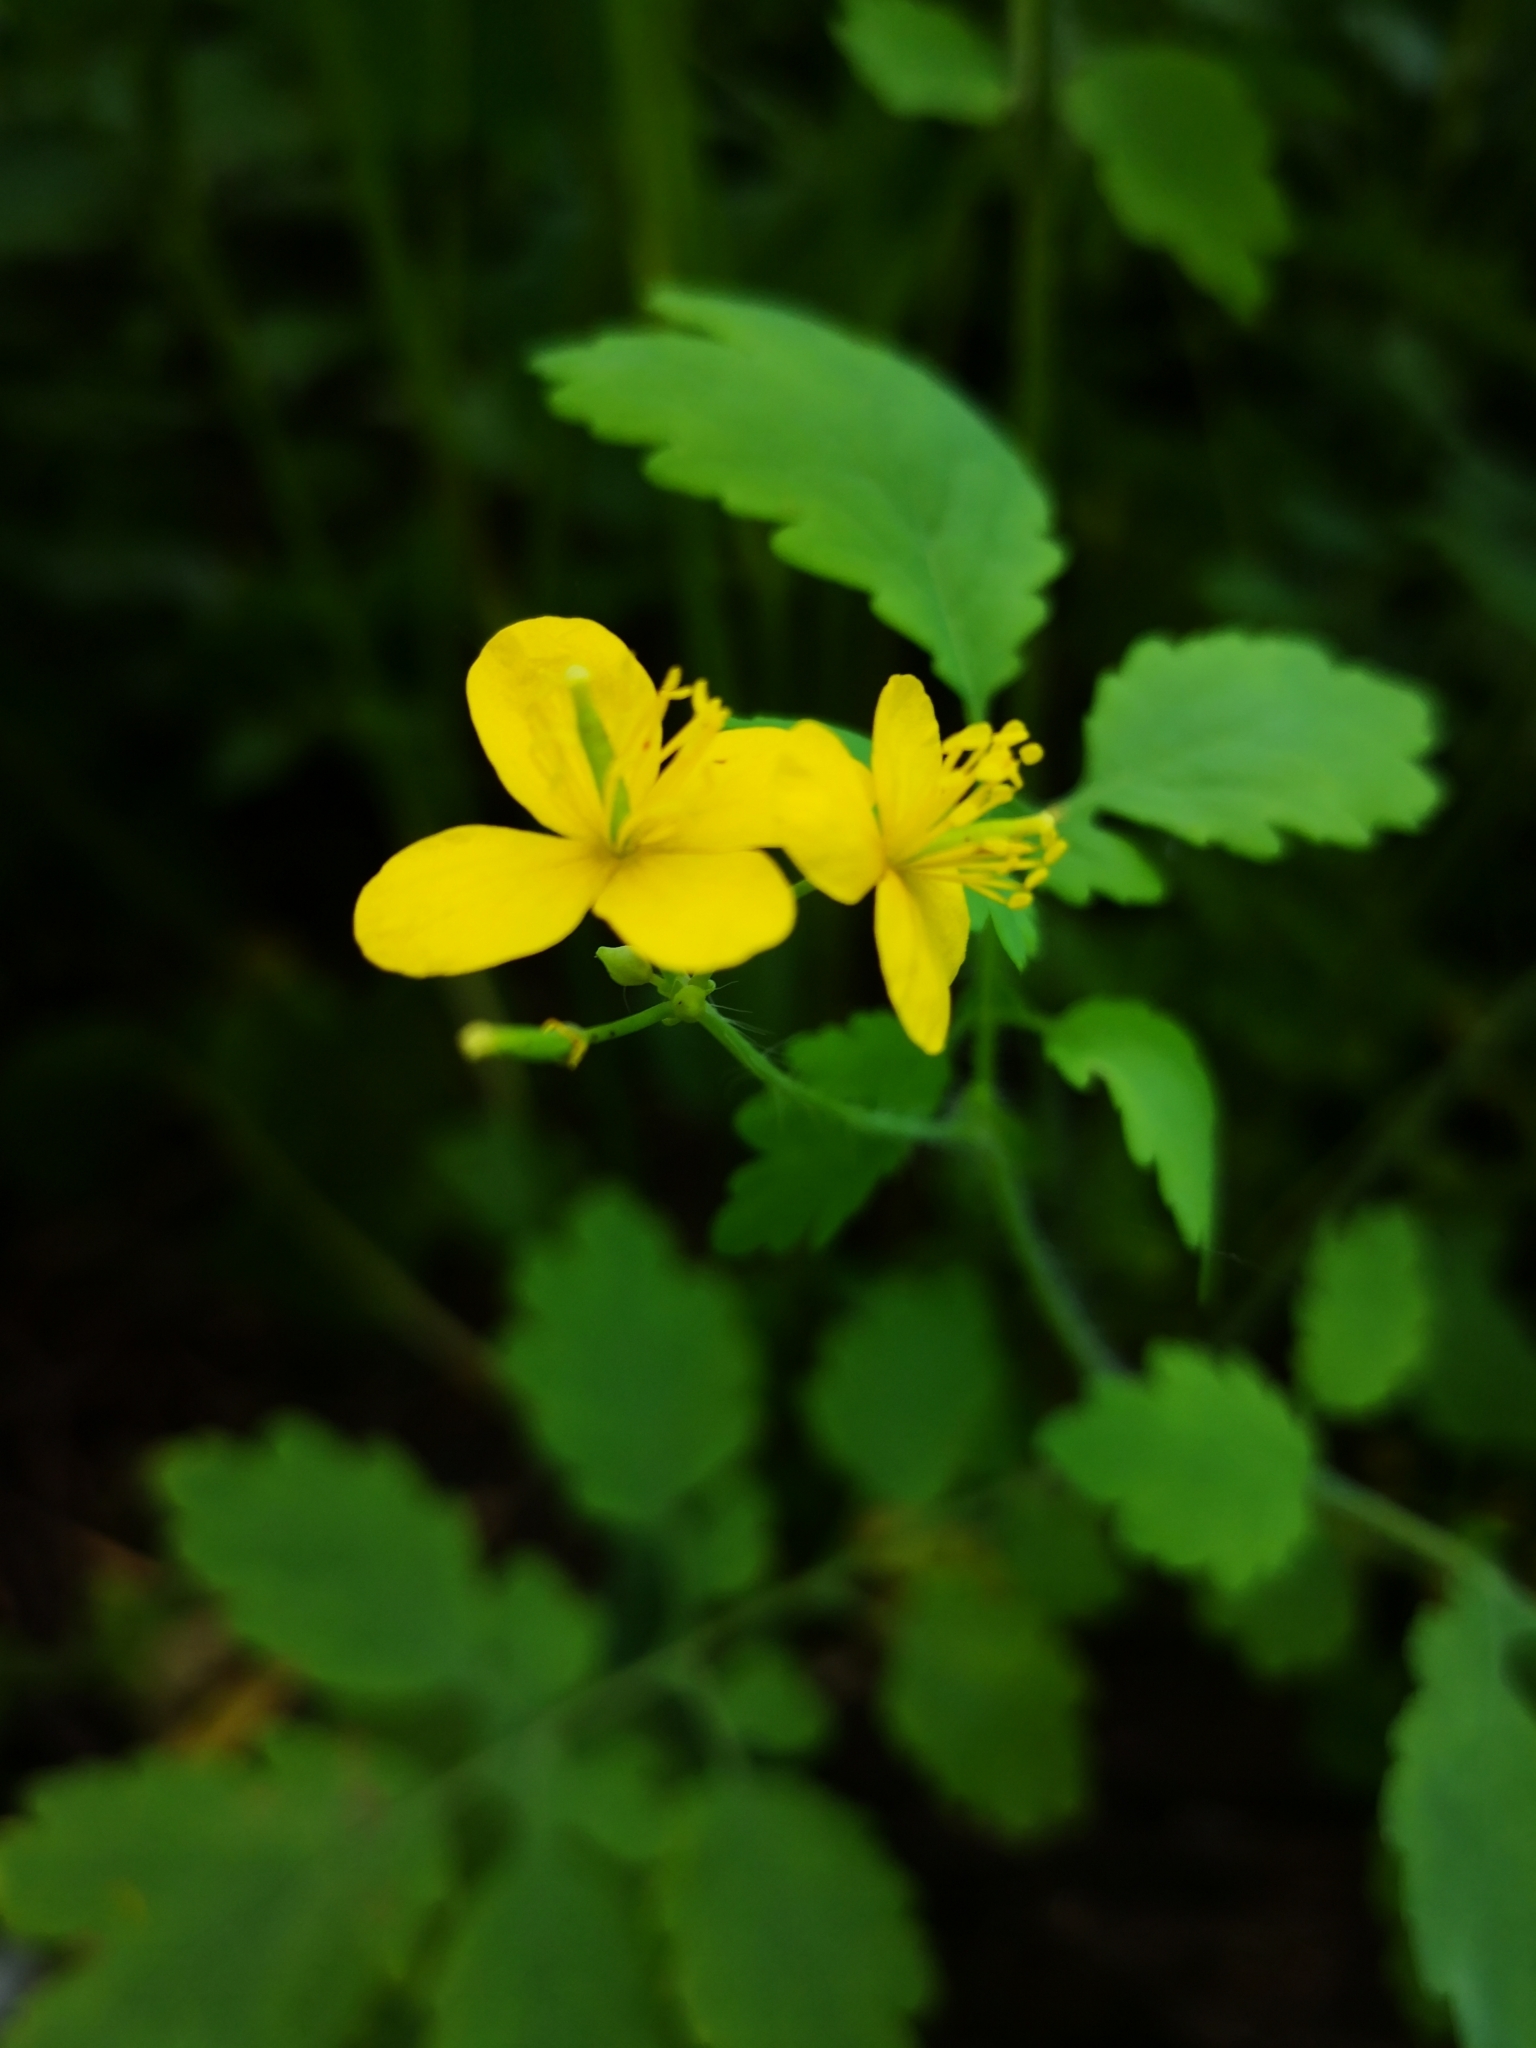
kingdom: Plantae
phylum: Tracheophyta
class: Magnoliopsida
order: Ranunculales
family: Papaveraceae
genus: Chelidonium
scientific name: Chelidonium majus
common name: Greater celandine
